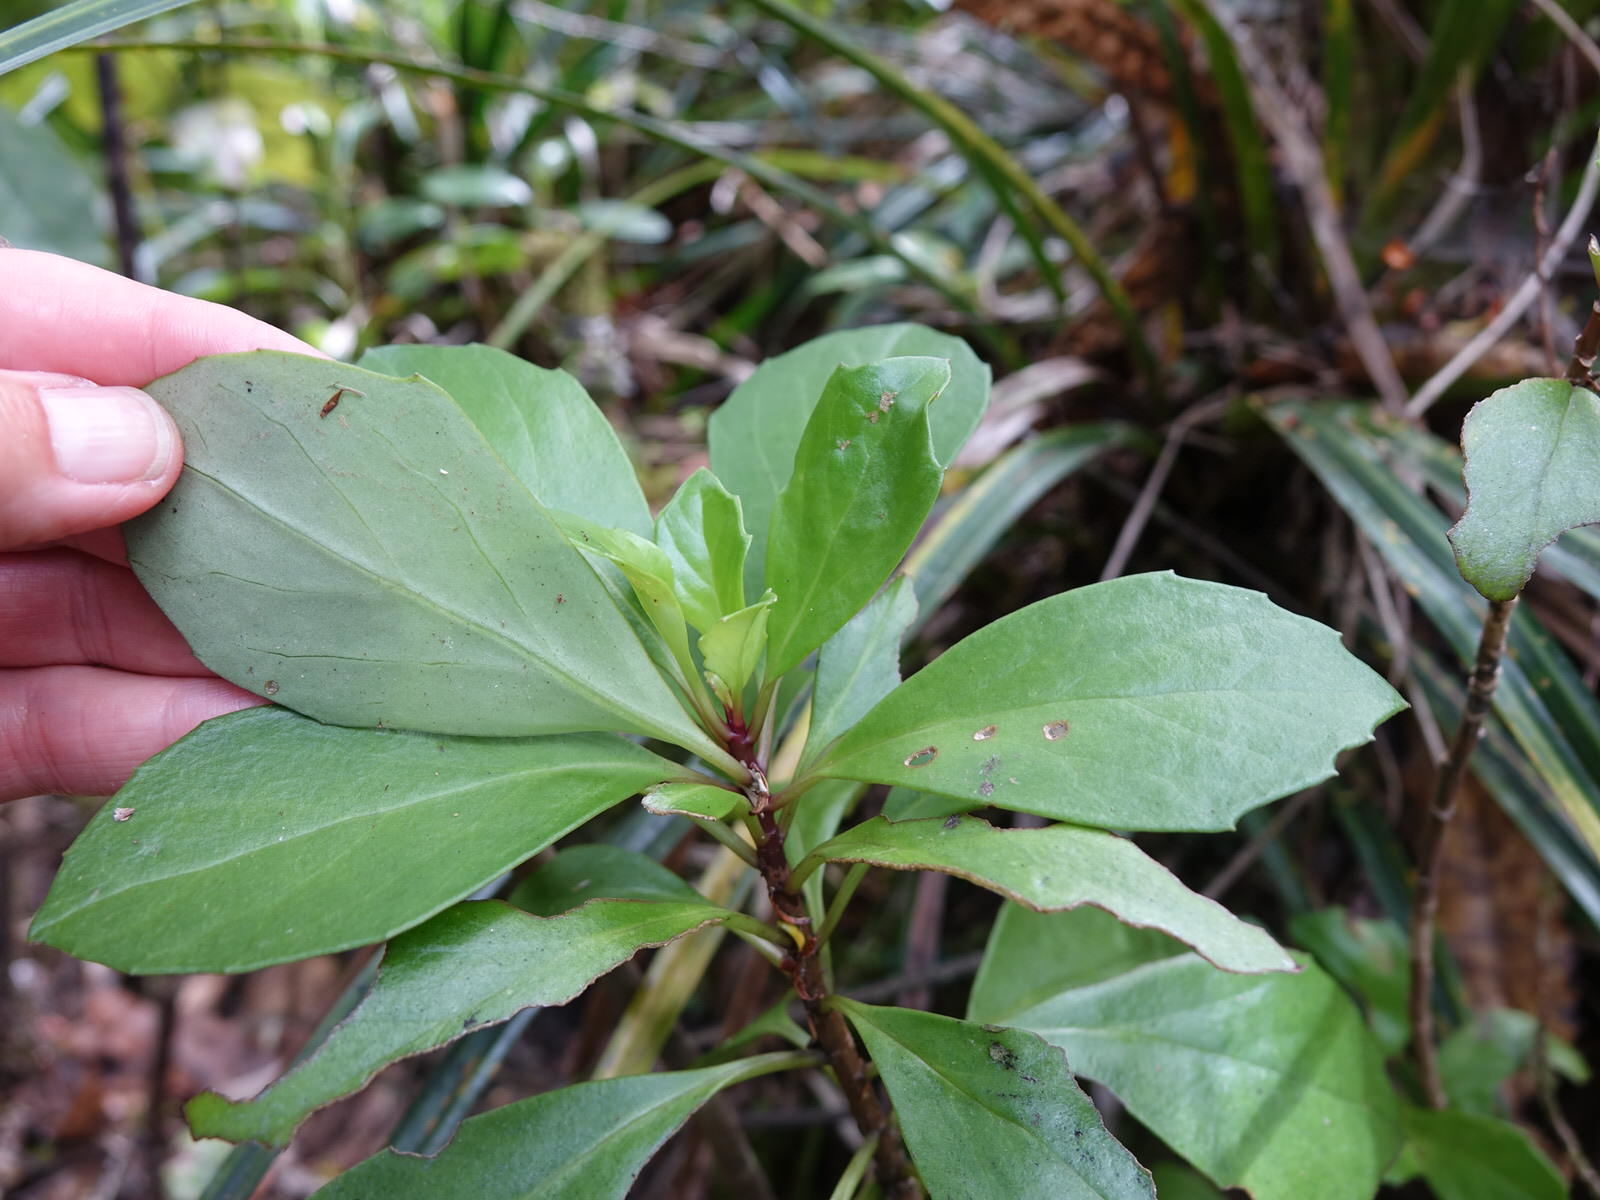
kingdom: Plantae
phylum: Tracheophyta
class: Magnoliopsida
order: Asterales
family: Asteraceae
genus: Brachyglottis
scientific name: Brachyglottis kirkii
